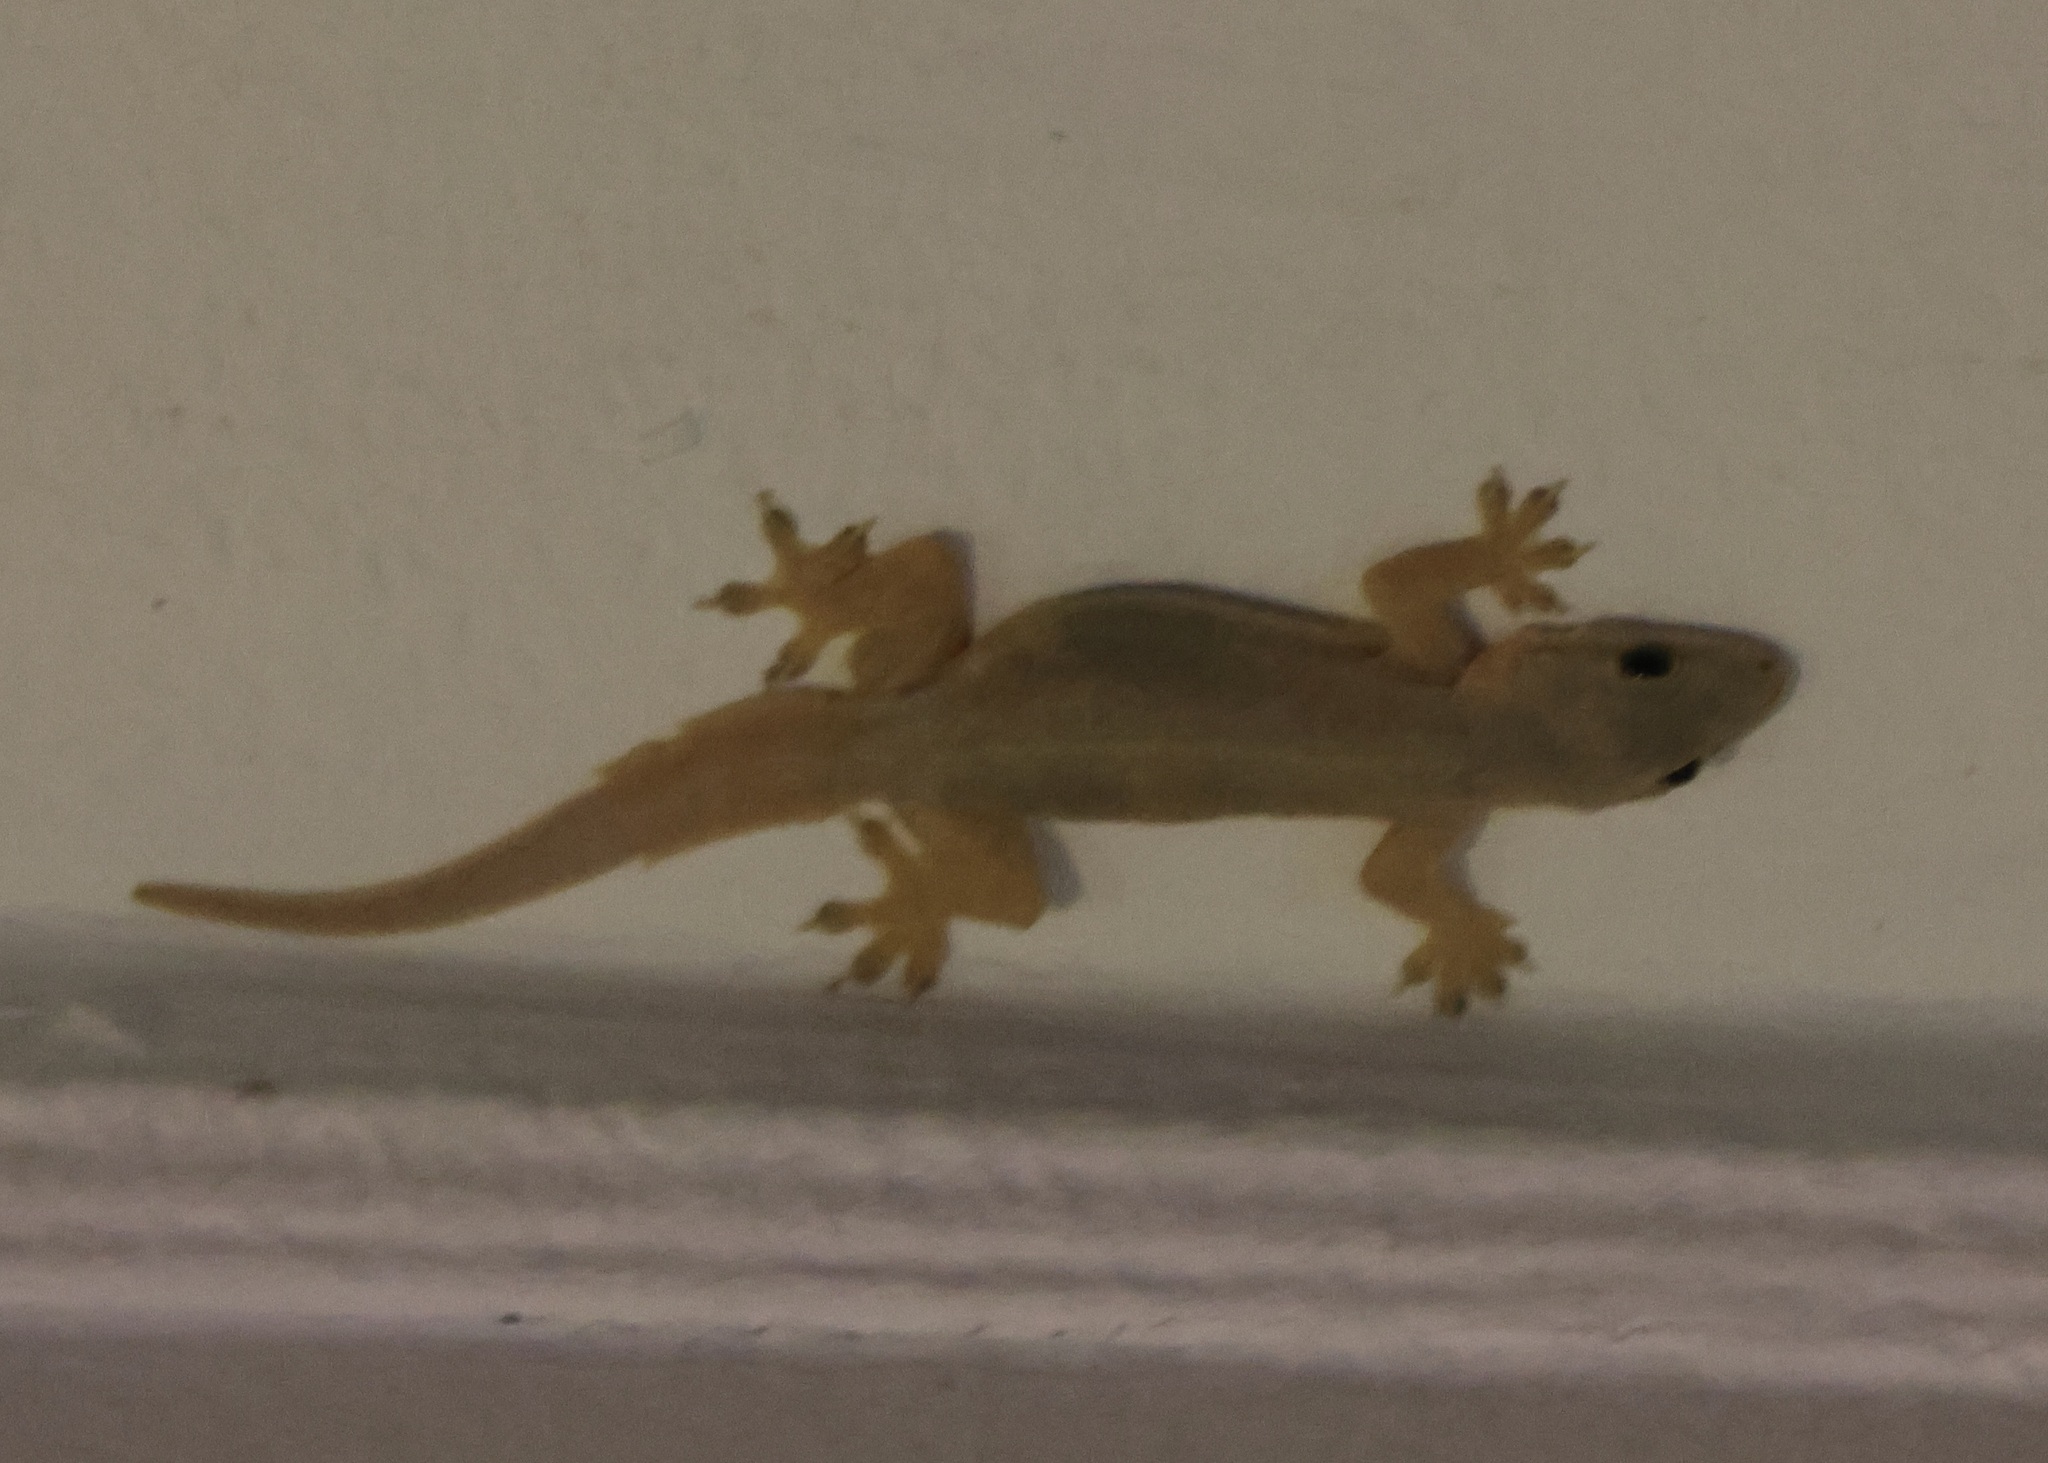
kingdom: Animalia
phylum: Chordata
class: Squamata
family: Gekkonidae
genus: Hemidactylus
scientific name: Hemidactylus platyurus
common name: Flat-tailed house gecko
